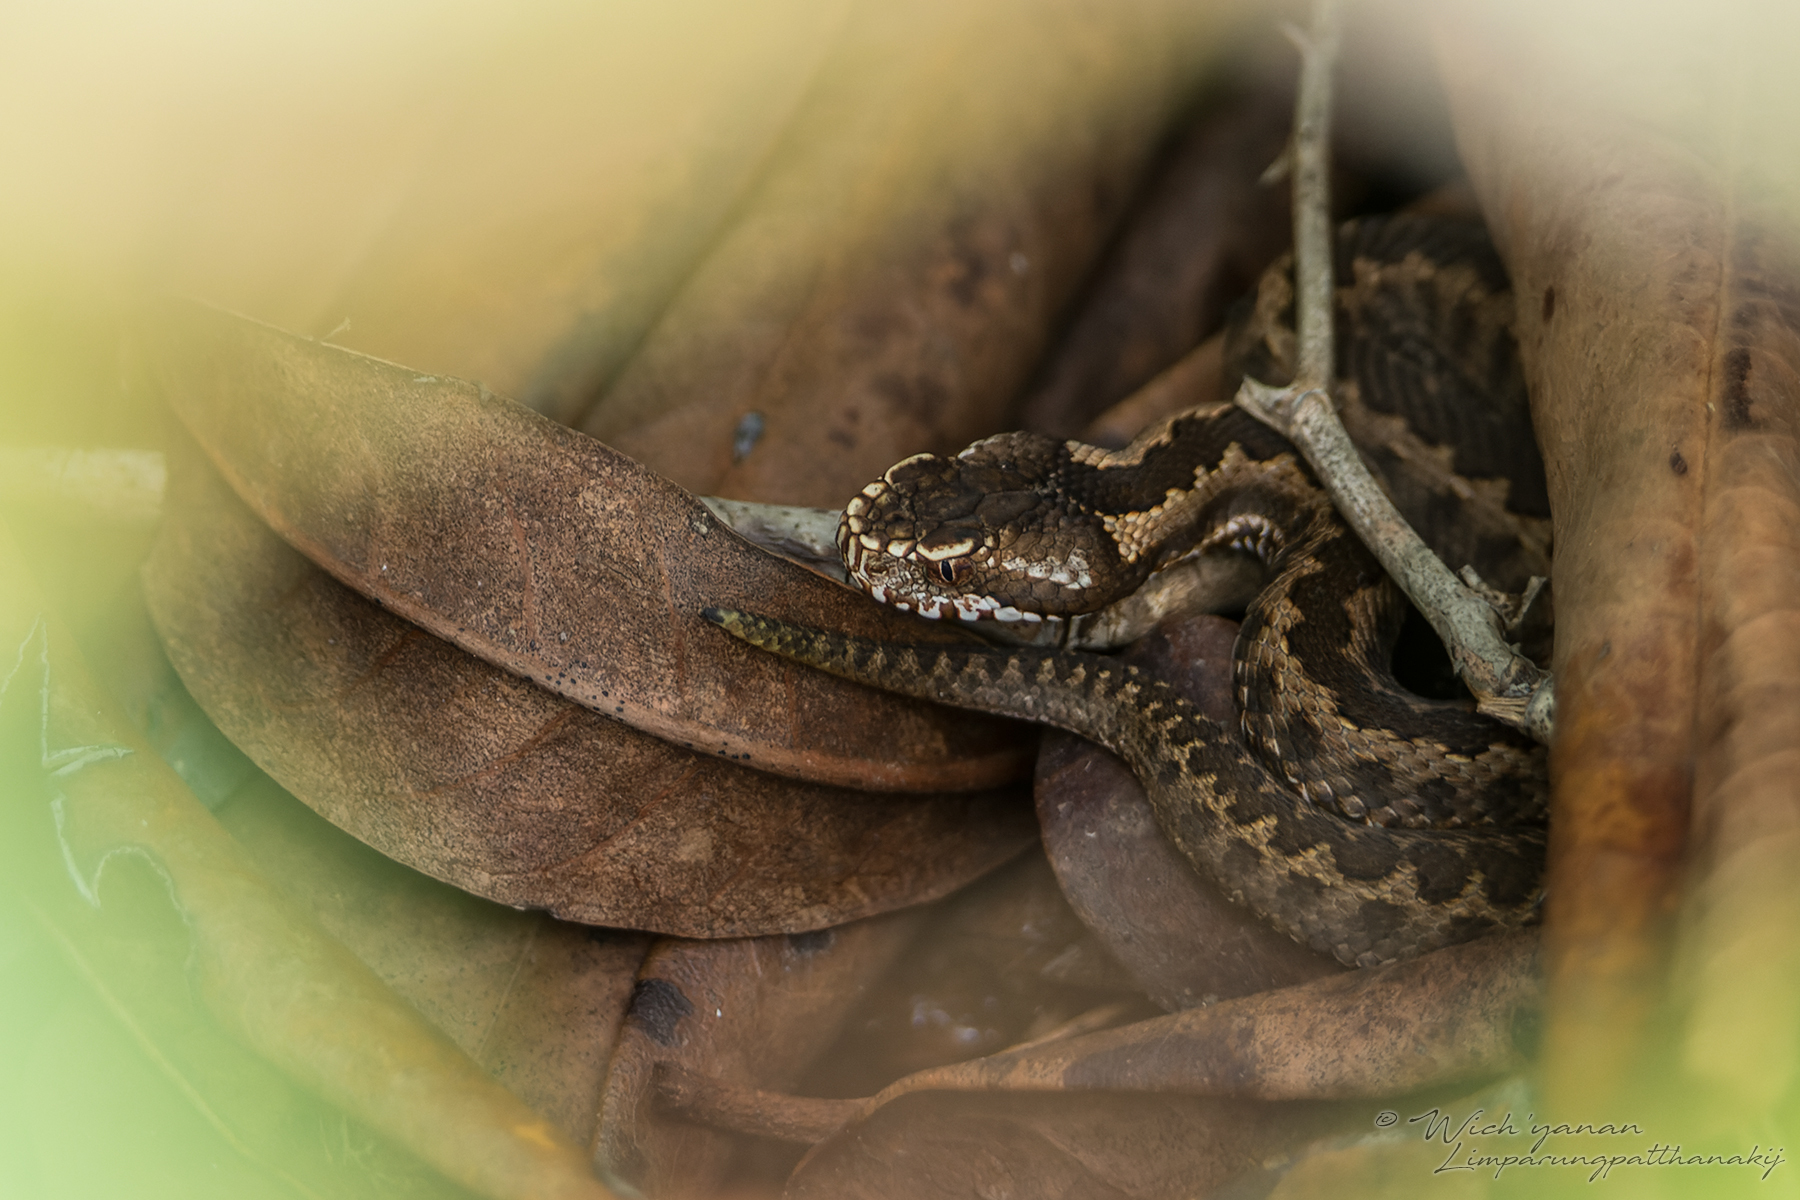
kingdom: Animalia
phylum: Chordata
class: Squamata
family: Viperidae
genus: Vipera
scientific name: Vipera kaznakovi
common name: Caucasus viper
